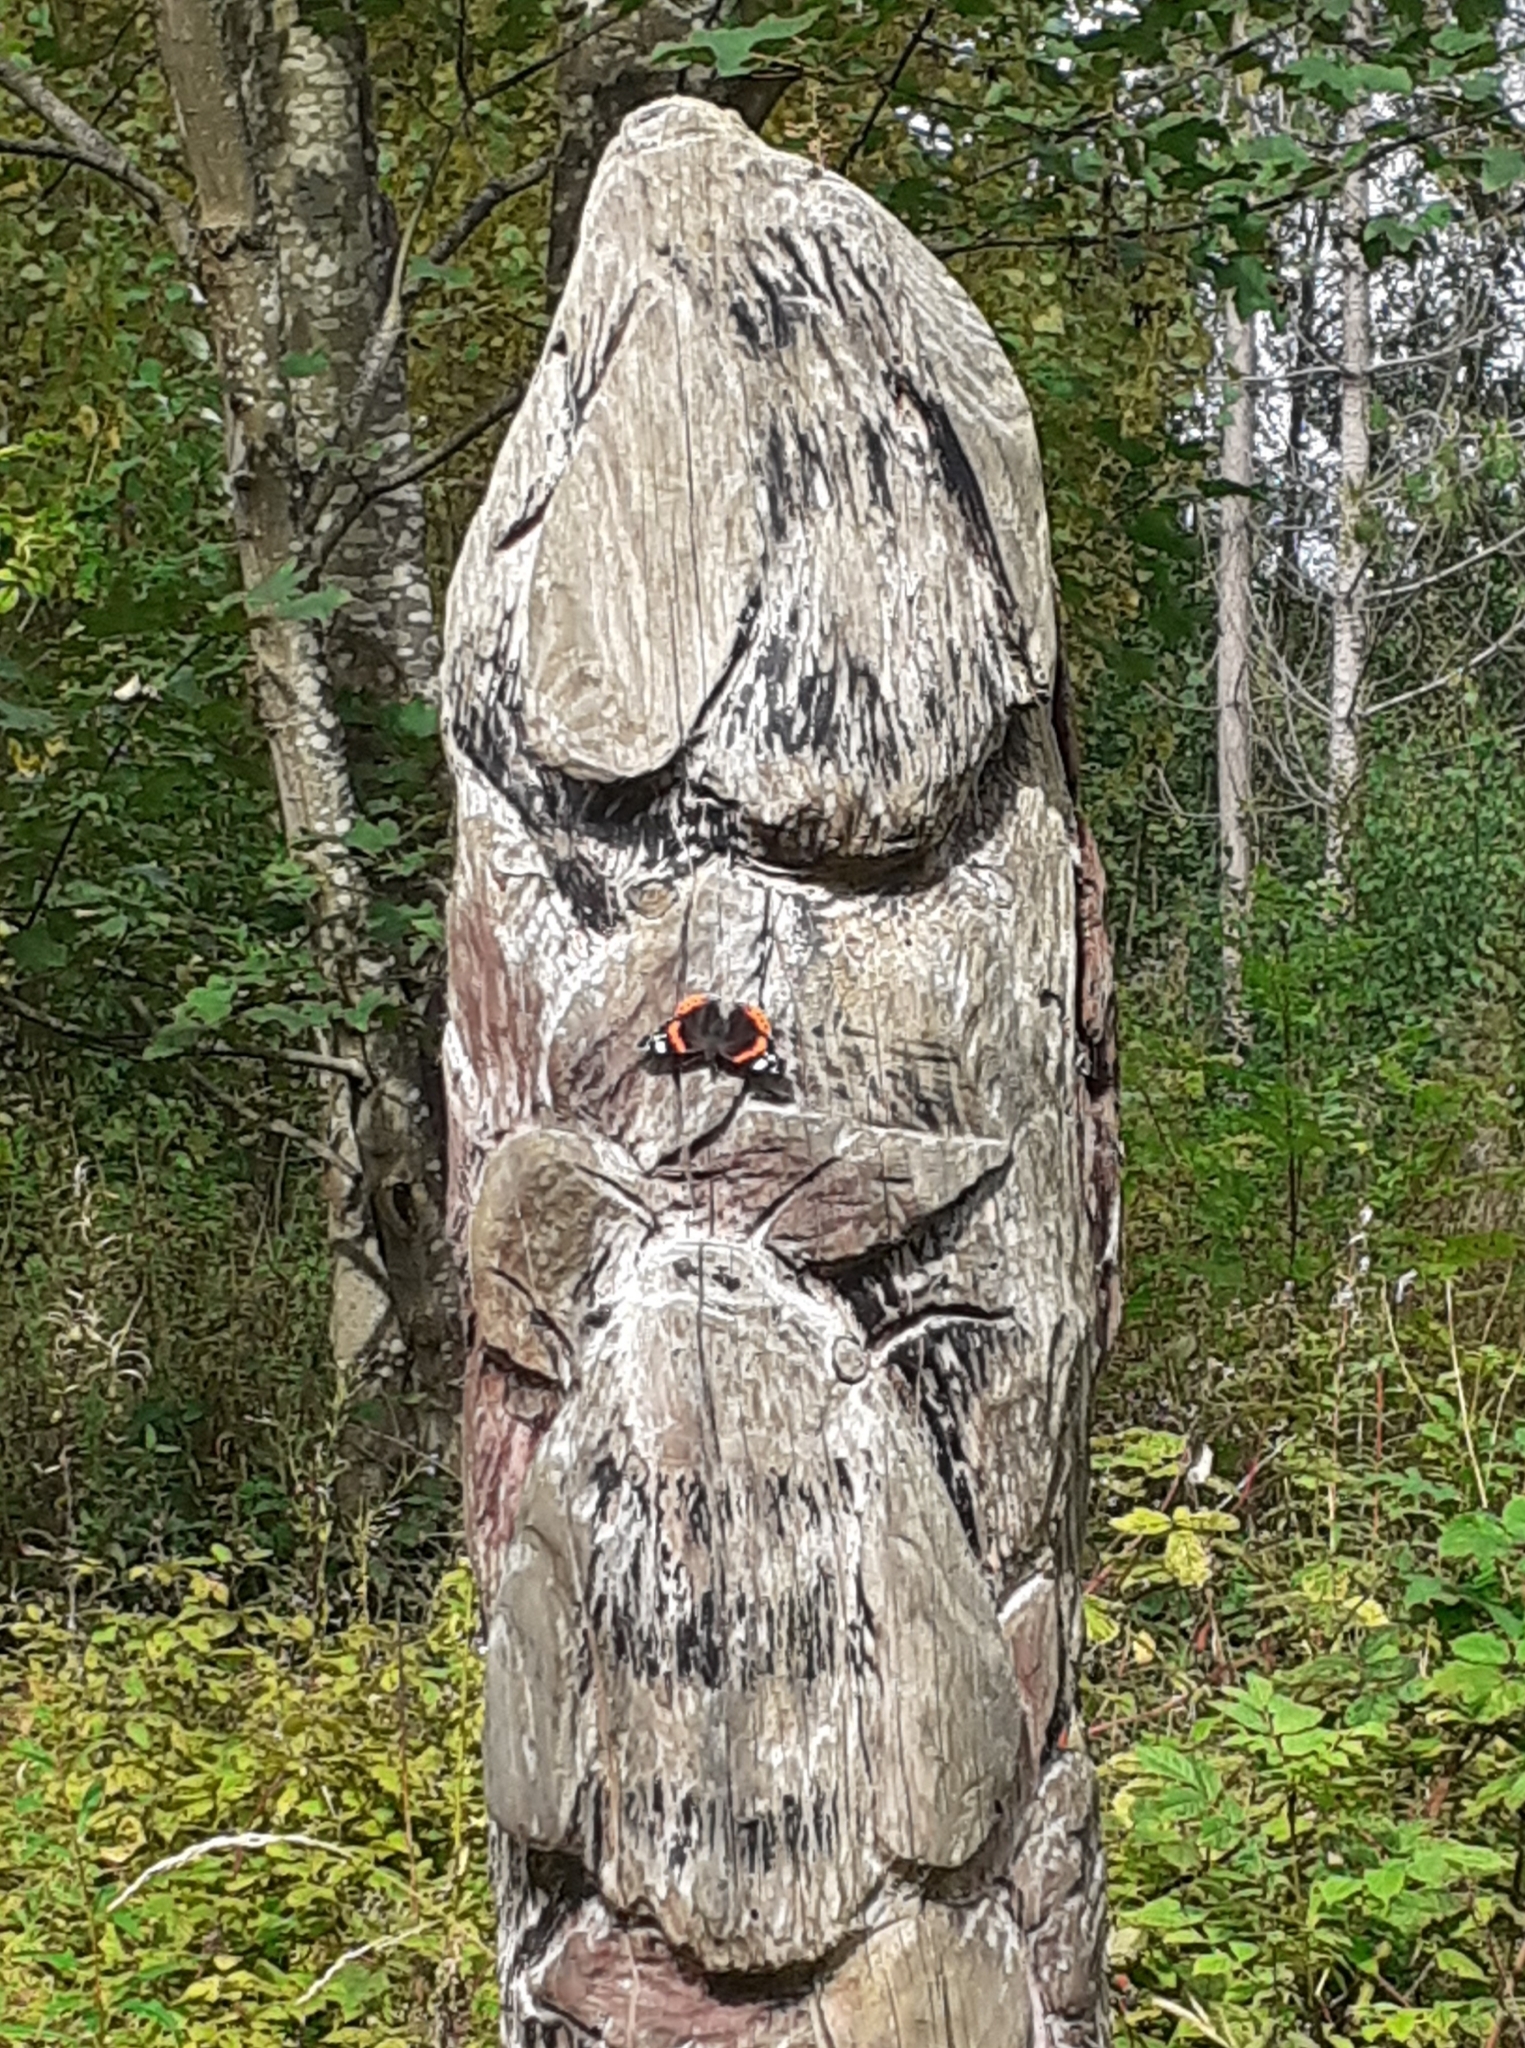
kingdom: Animalia
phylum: Arthropoda
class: Insecta
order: Lepidoptera
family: Nymphalidae
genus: Vanessa
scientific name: Vanessa atalanta
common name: Red admiral
